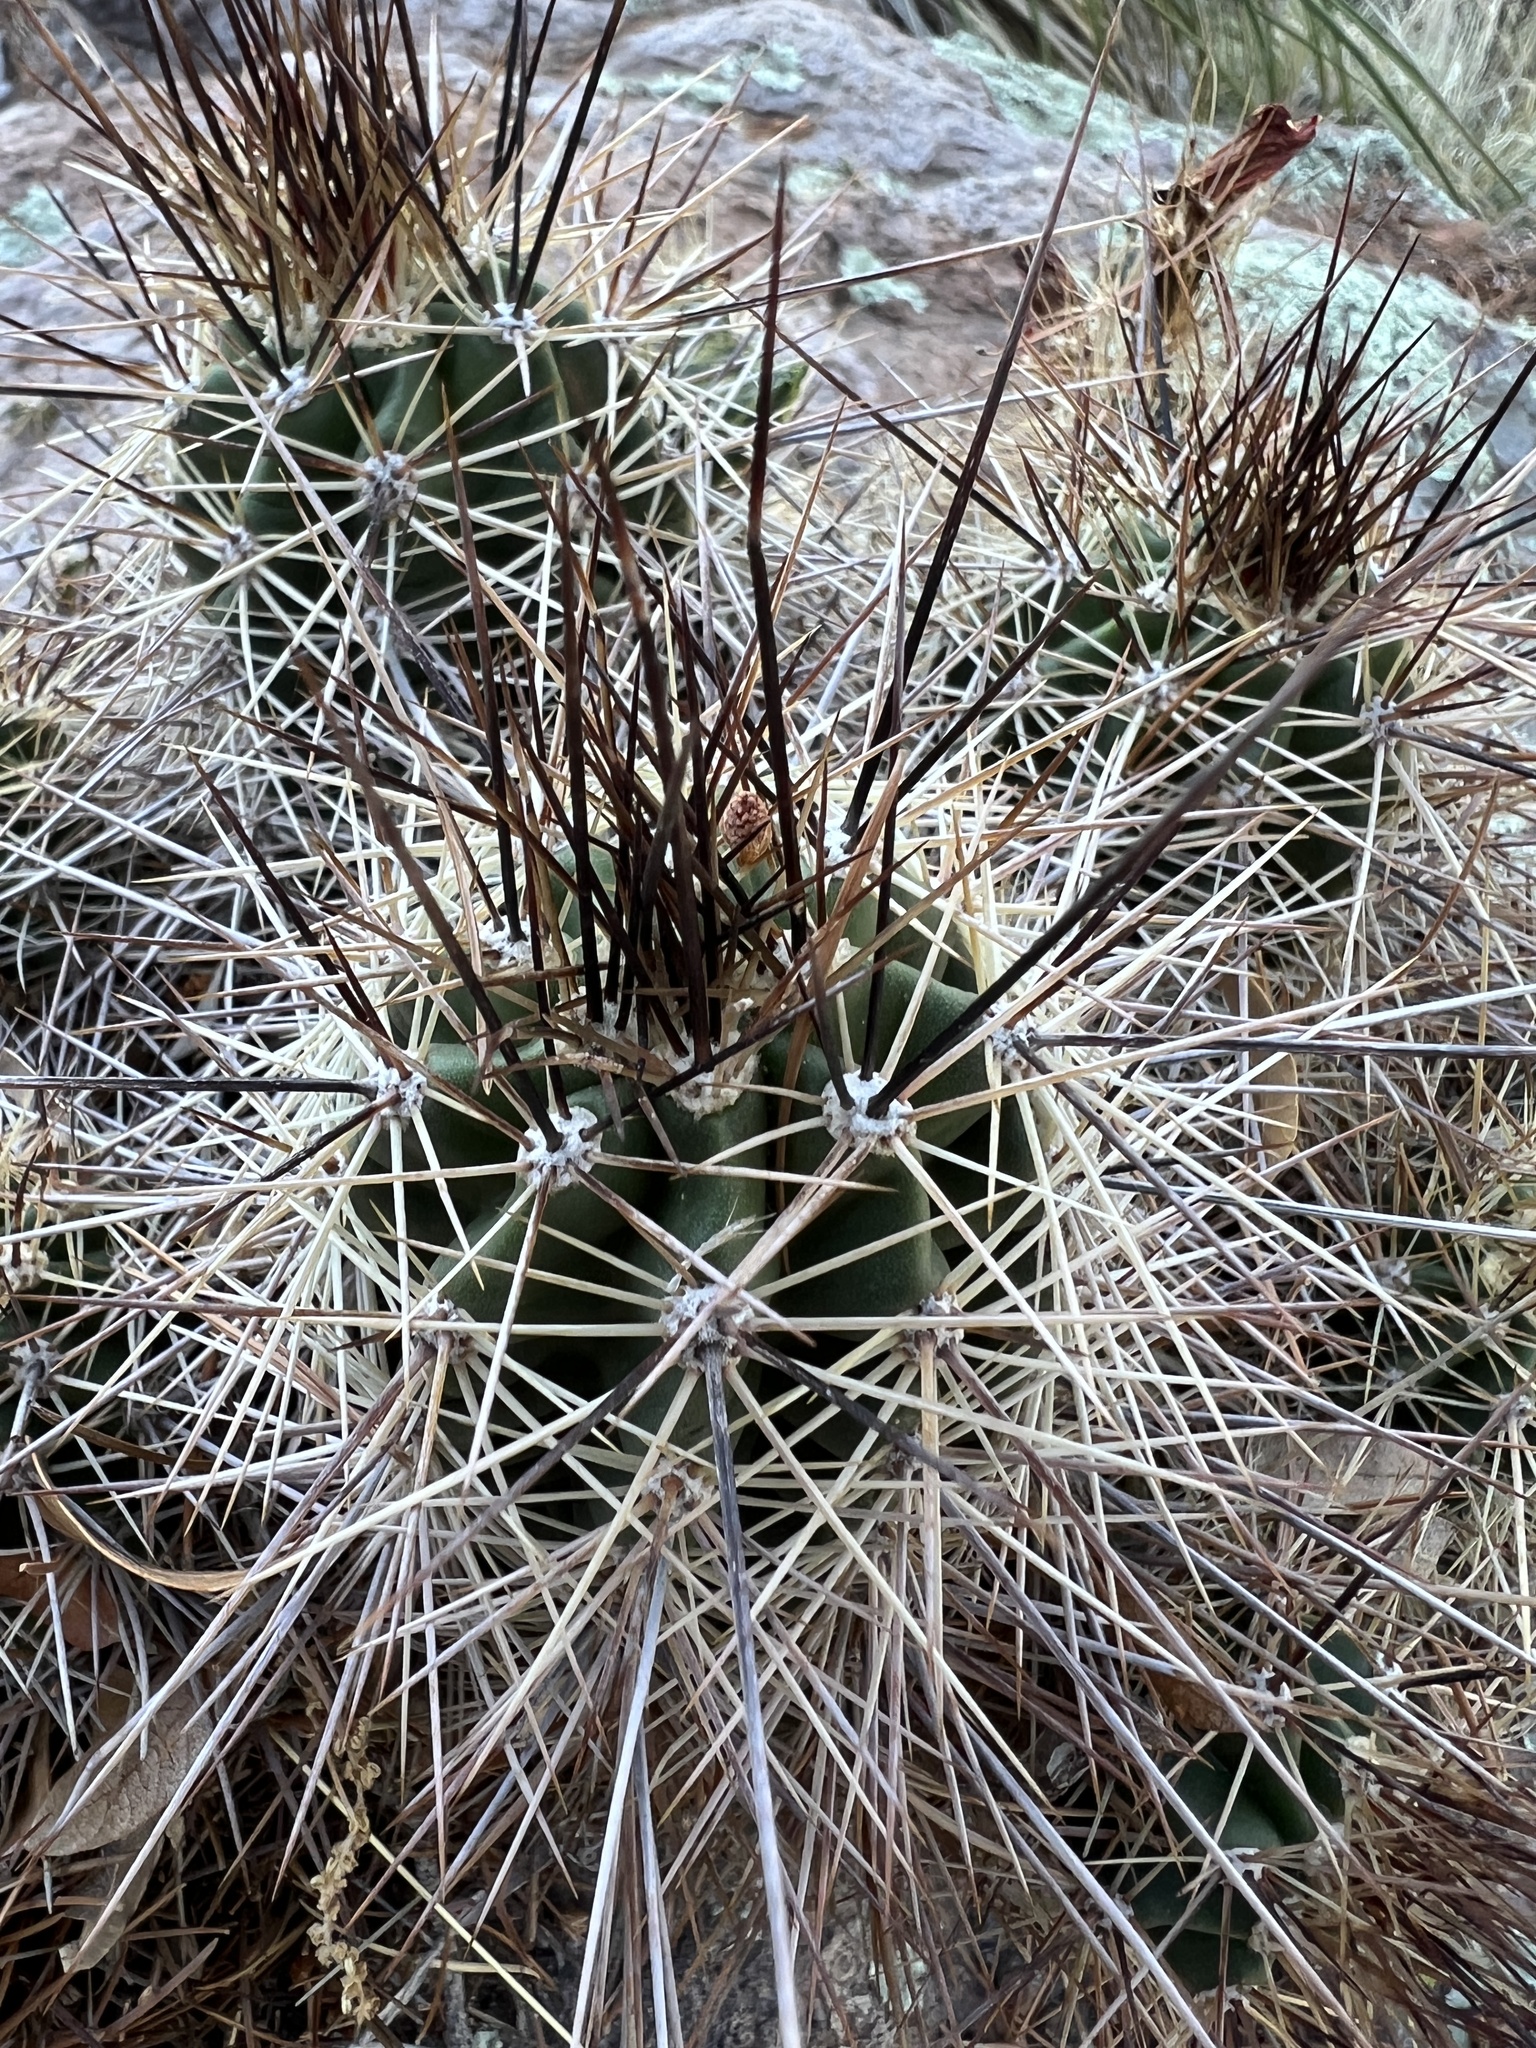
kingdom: Plantae
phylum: Tracheophyta
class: Magnoliopsida
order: Caryophyllales
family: Cactaceae
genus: Echinocereus
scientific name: Echinocereus coccineus
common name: Scarlet hedgehog cactus
